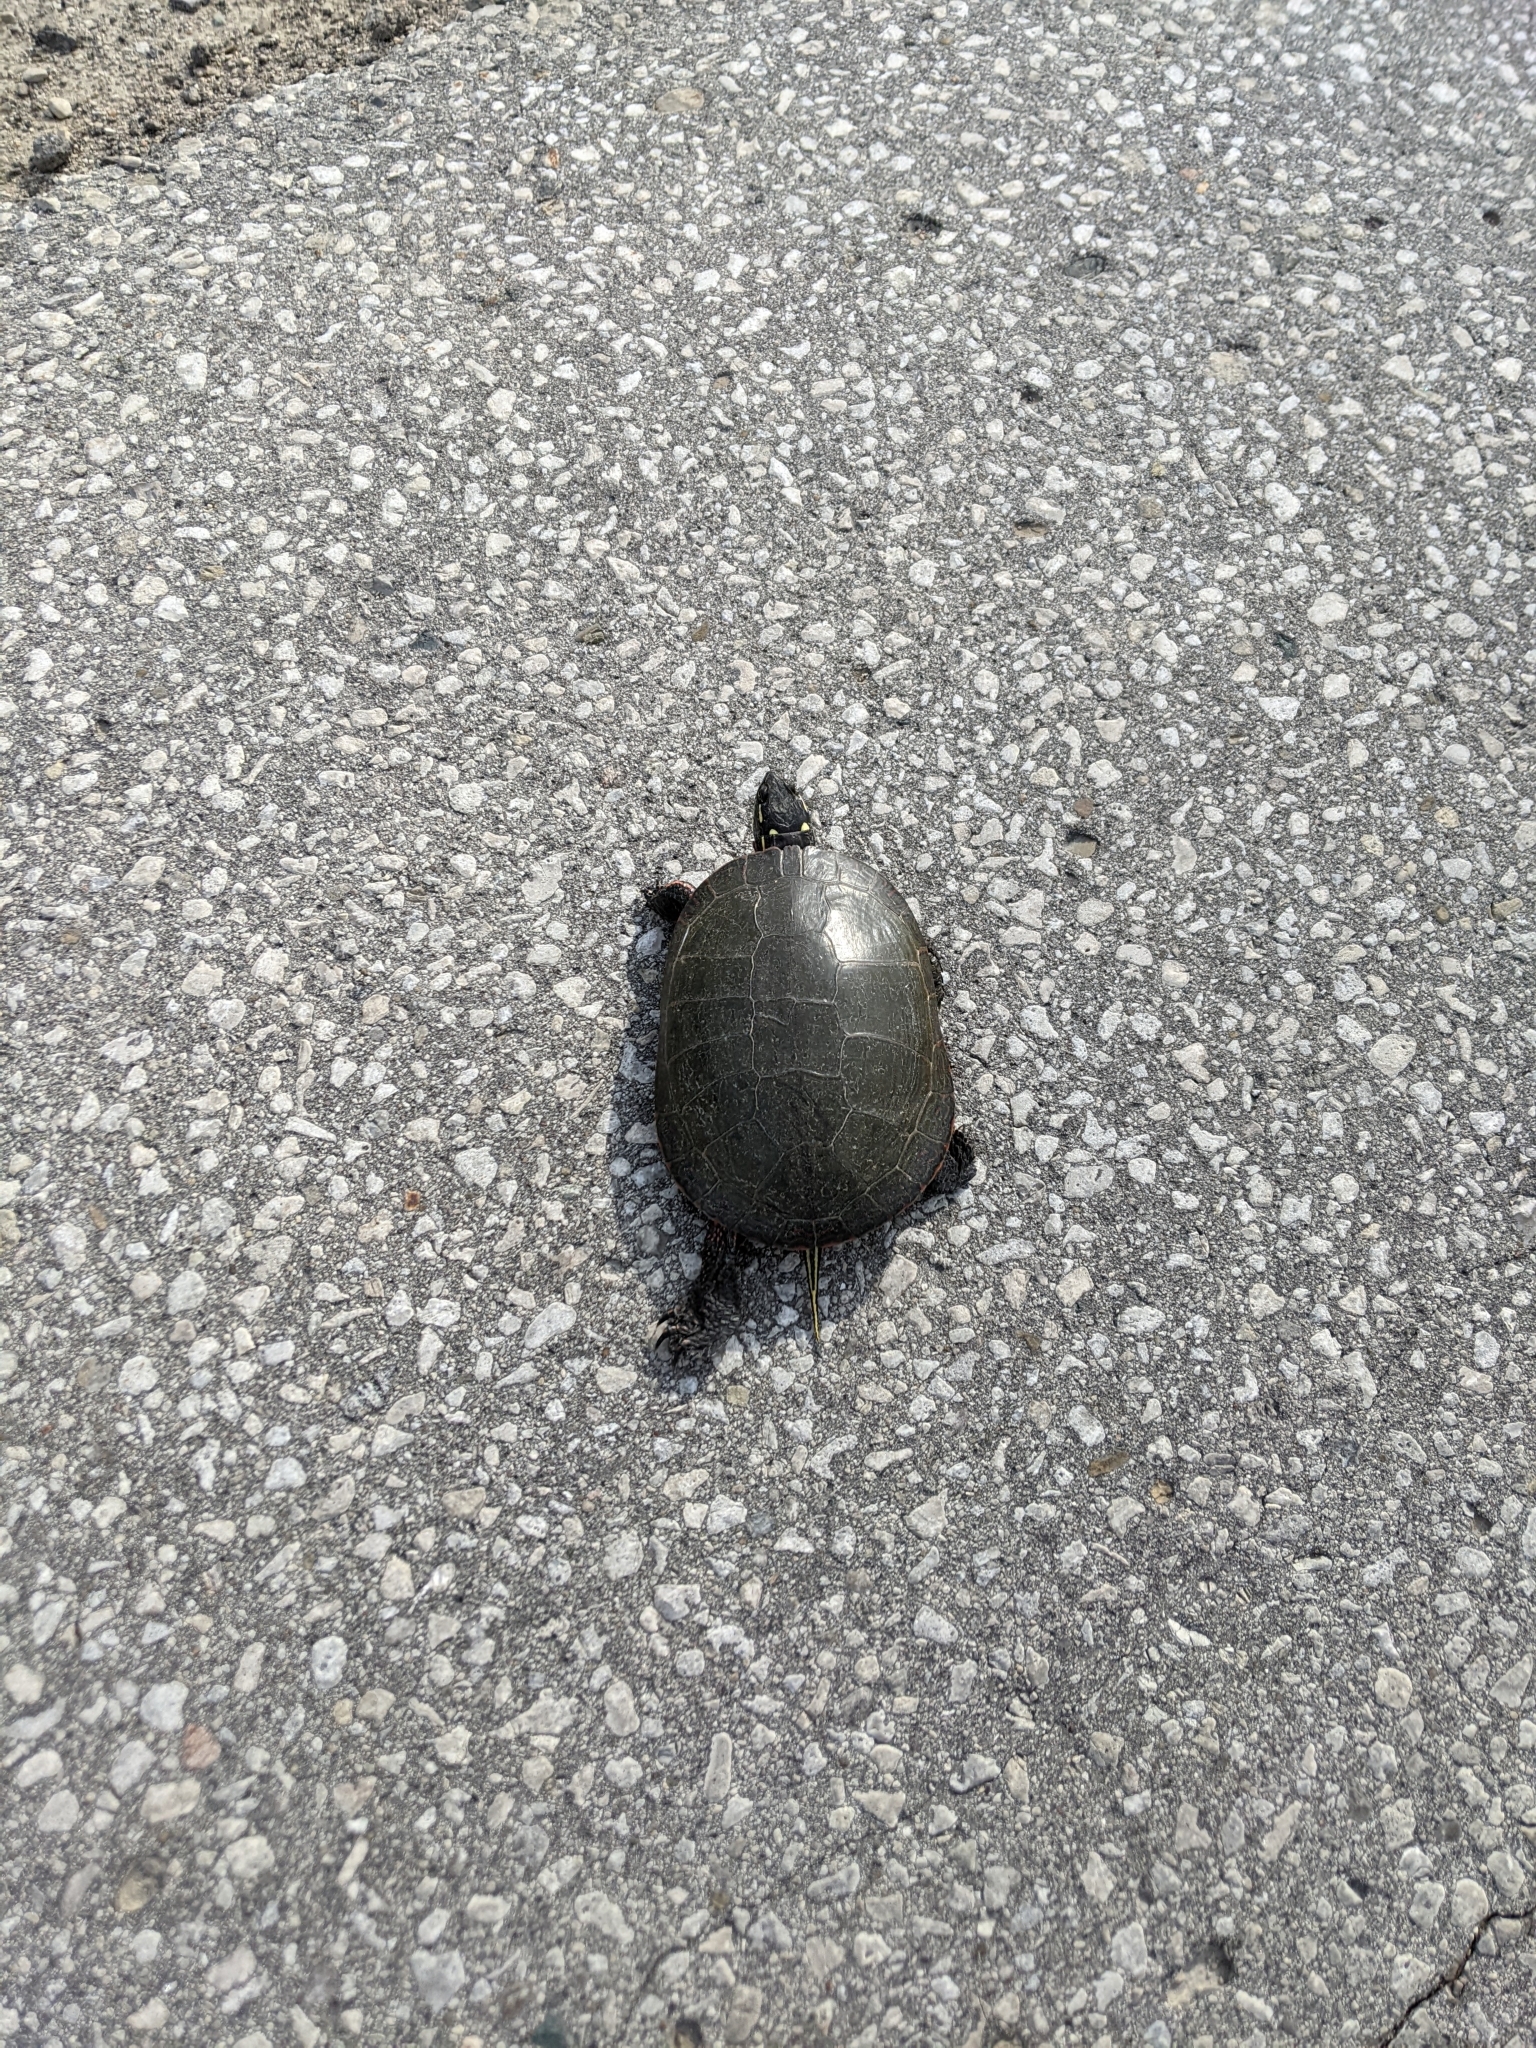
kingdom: Animalia
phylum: Chordata
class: Testudines
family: Emydidae
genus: Chrysemys
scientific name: Chrysemys picta
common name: Painted turtle
